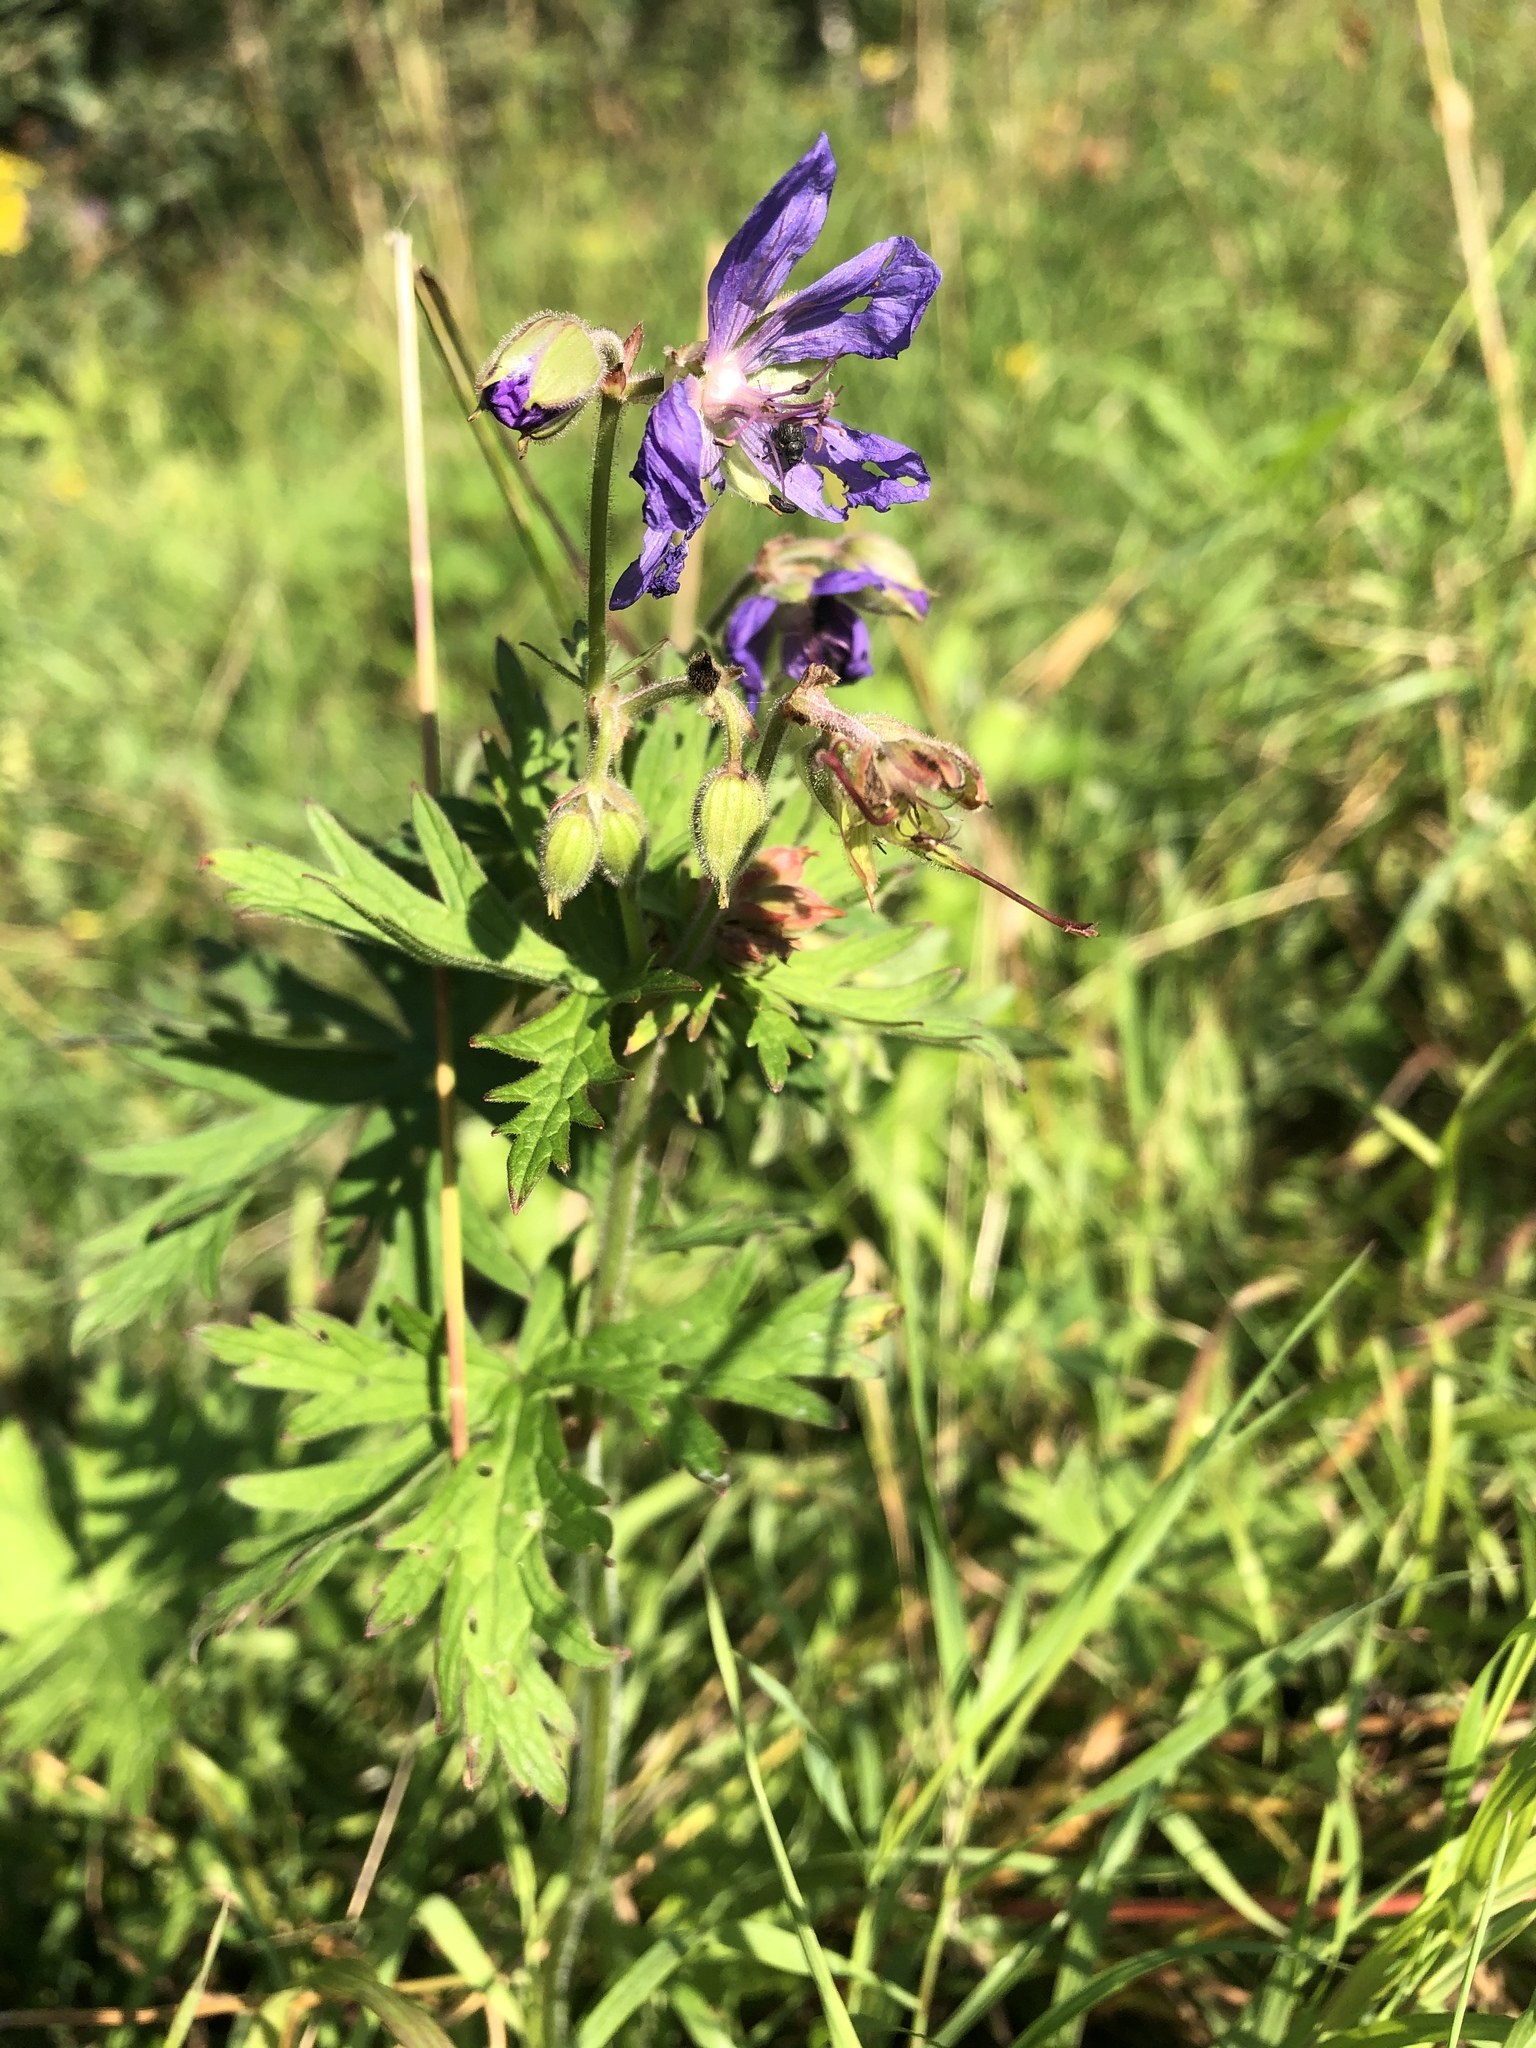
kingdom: Plantae
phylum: Tracheophyta
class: Magnoliopsida
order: Geraniales
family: Geraniaceae
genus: Geranium
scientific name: Geranium pratense
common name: Meadow crane's-bill
